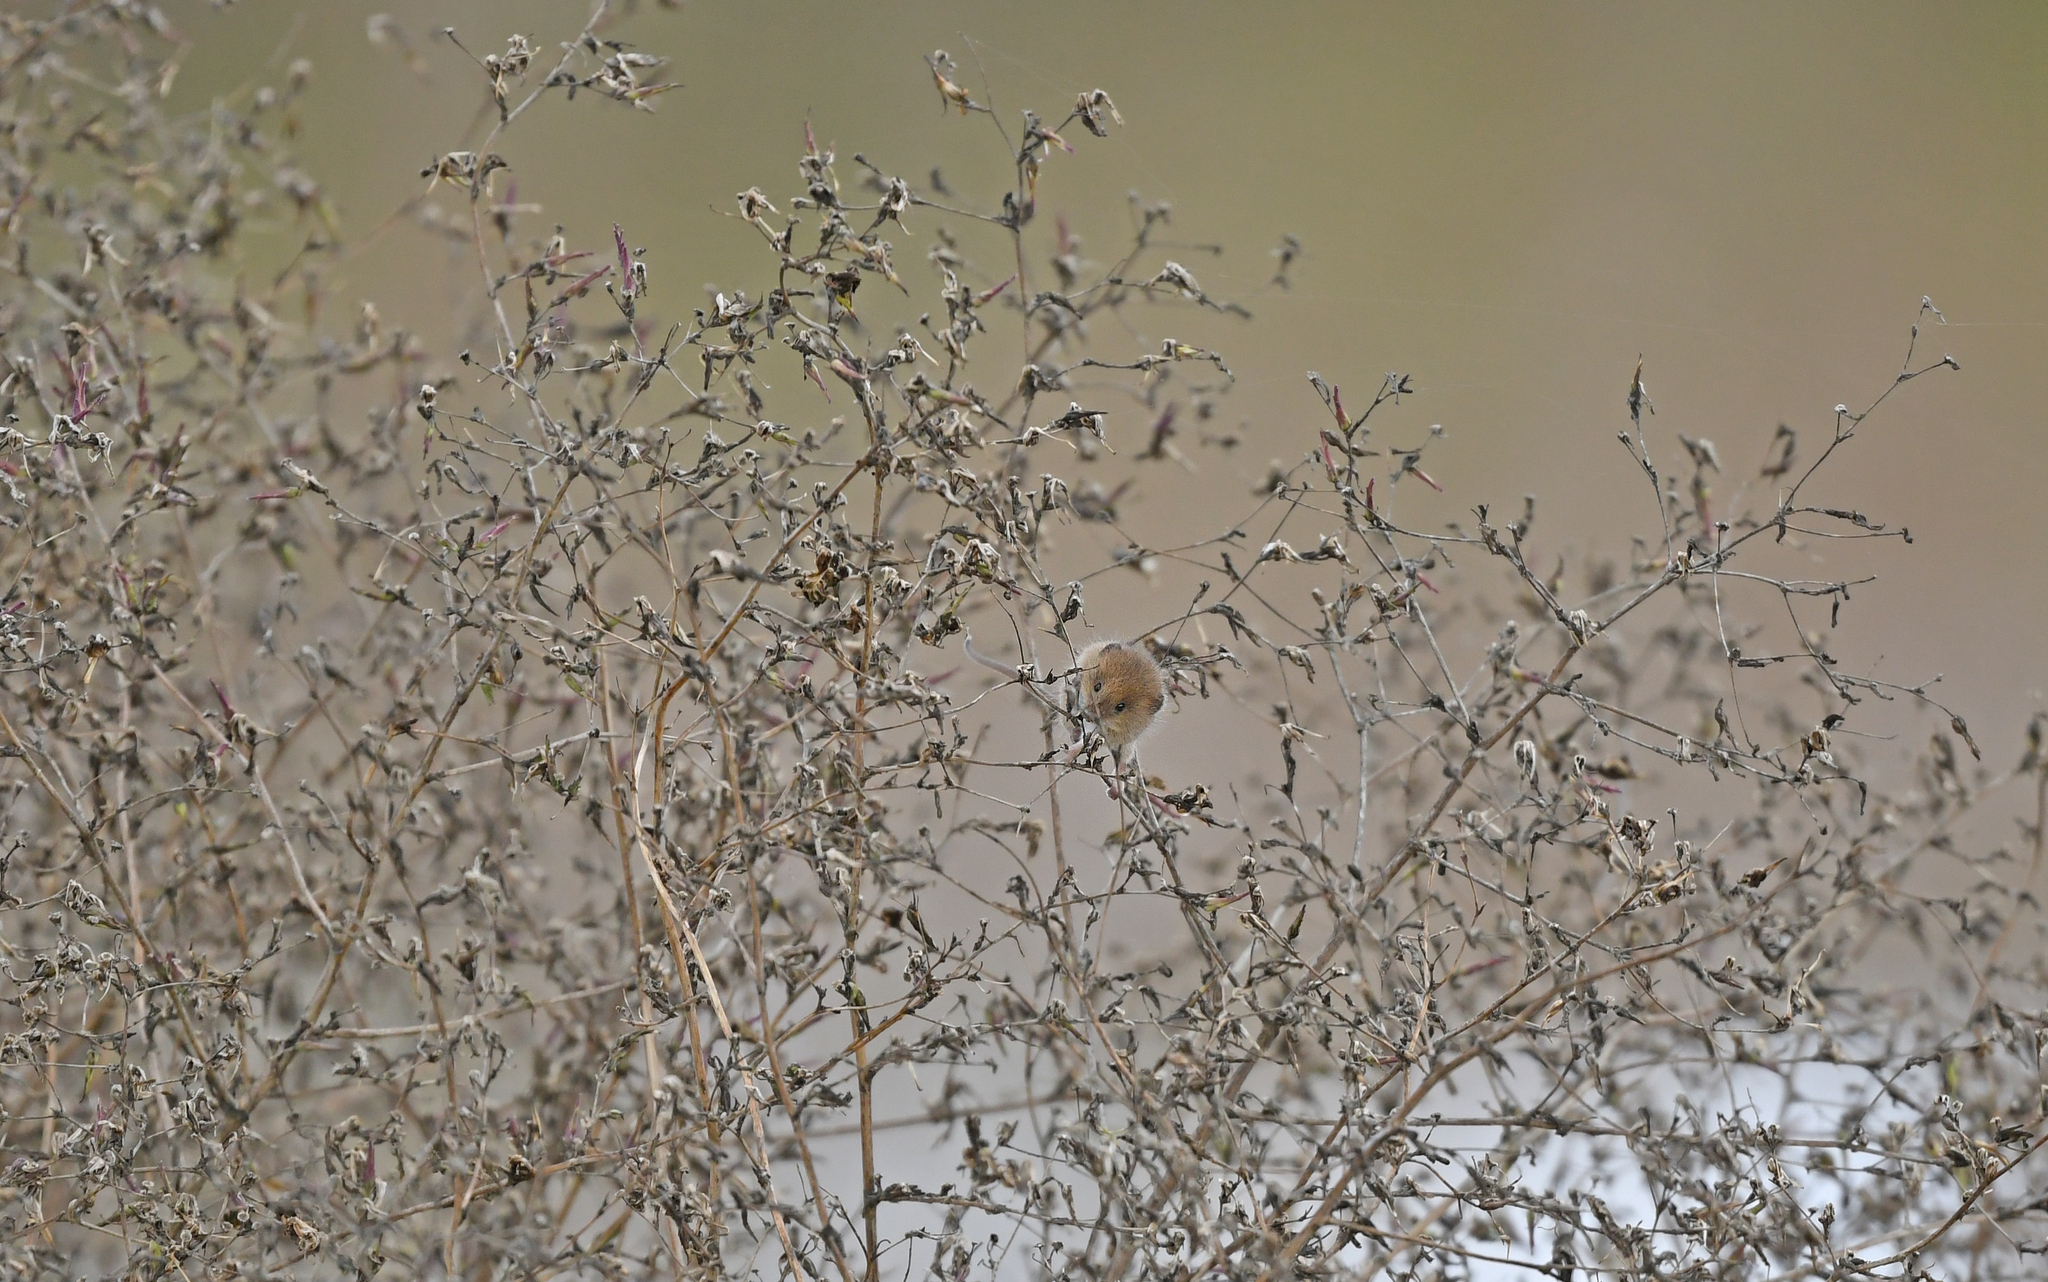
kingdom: Animalia
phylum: Chordata
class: Mammalia
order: Rodentia
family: Muridae
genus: Micromys
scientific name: Micromys minutus
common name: Harvest mouse
